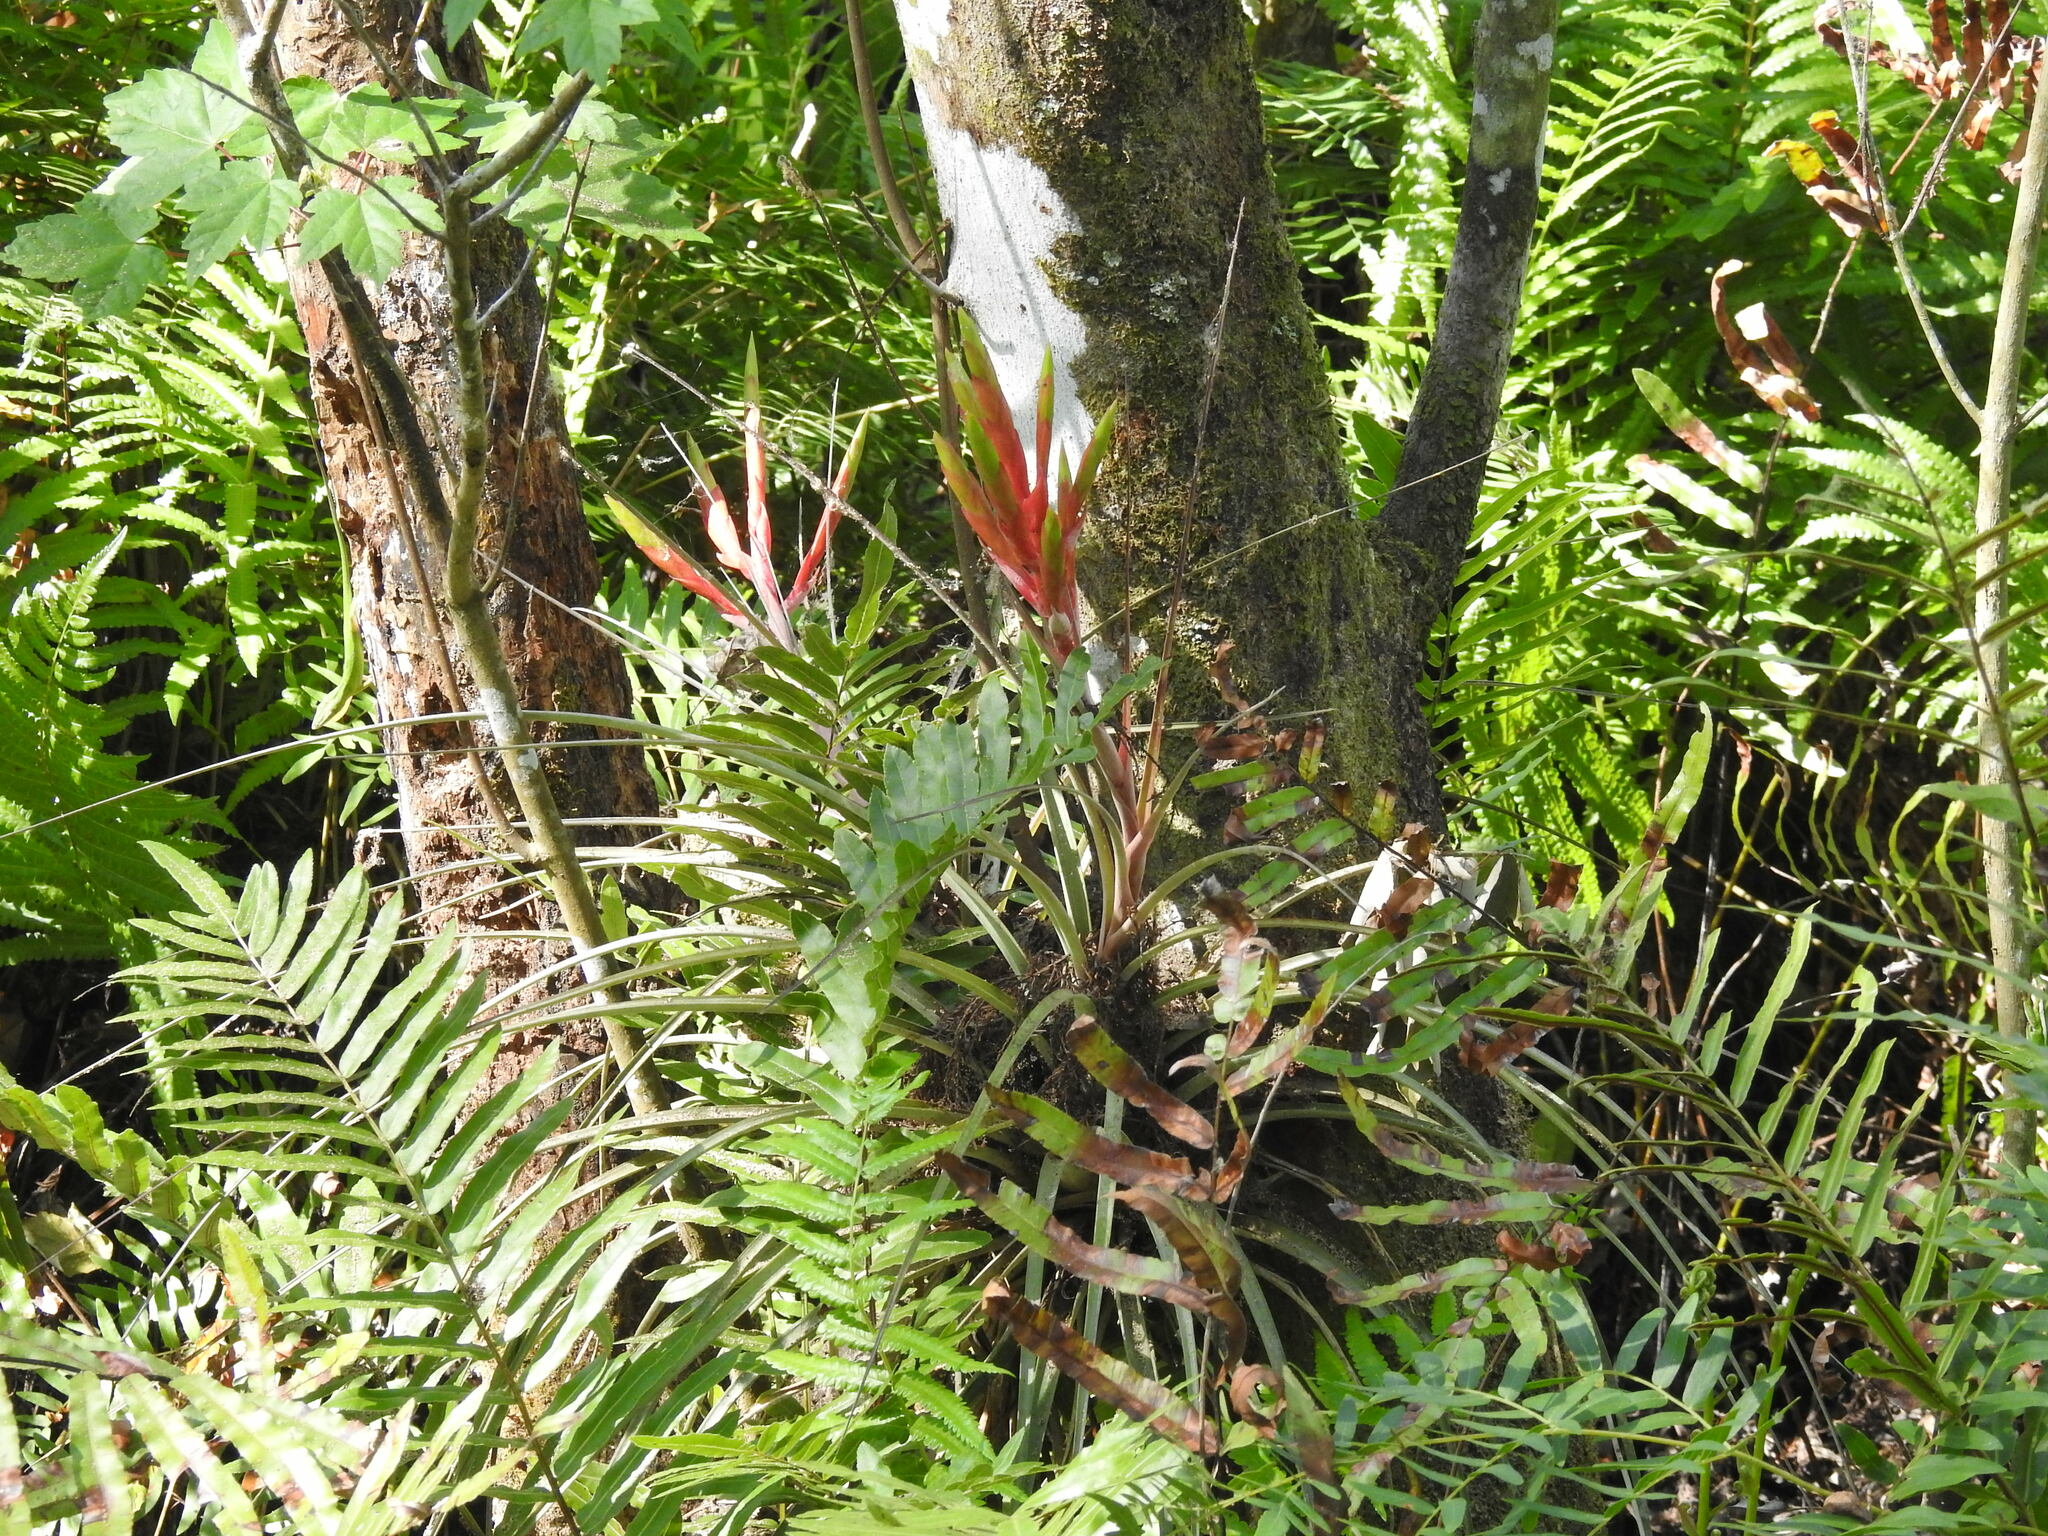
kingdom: Plantae
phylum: Tracheophyta
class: Liliopsida
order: Poales
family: Bromeliaceae
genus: Tillandsia
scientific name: Tillandsia fasciculata
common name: Giant airplant
